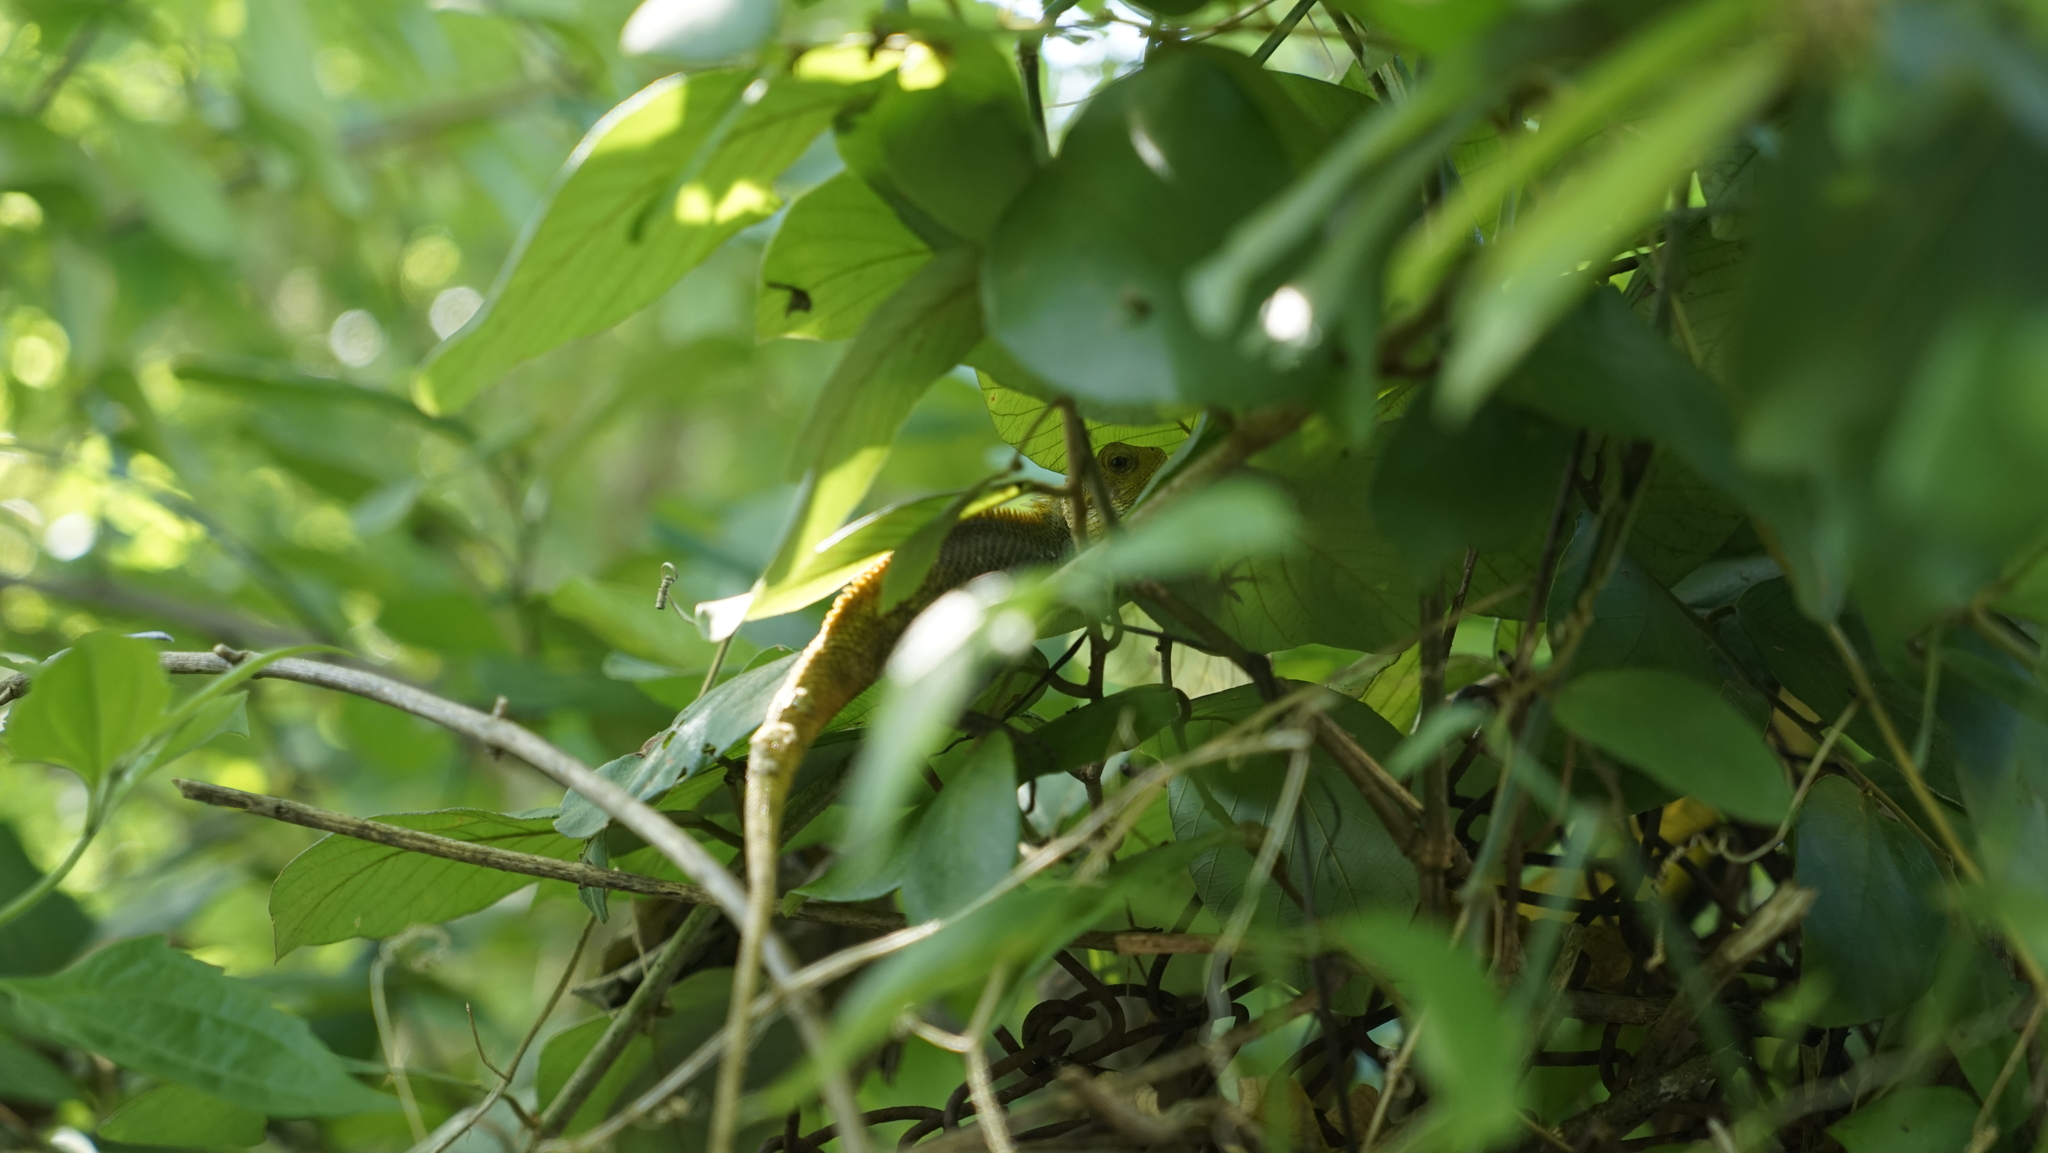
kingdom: Animalia
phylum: Chordata
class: Squamata
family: Agamidae
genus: Calotes
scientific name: Calotes versicolor
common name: Oriental garden lizard
